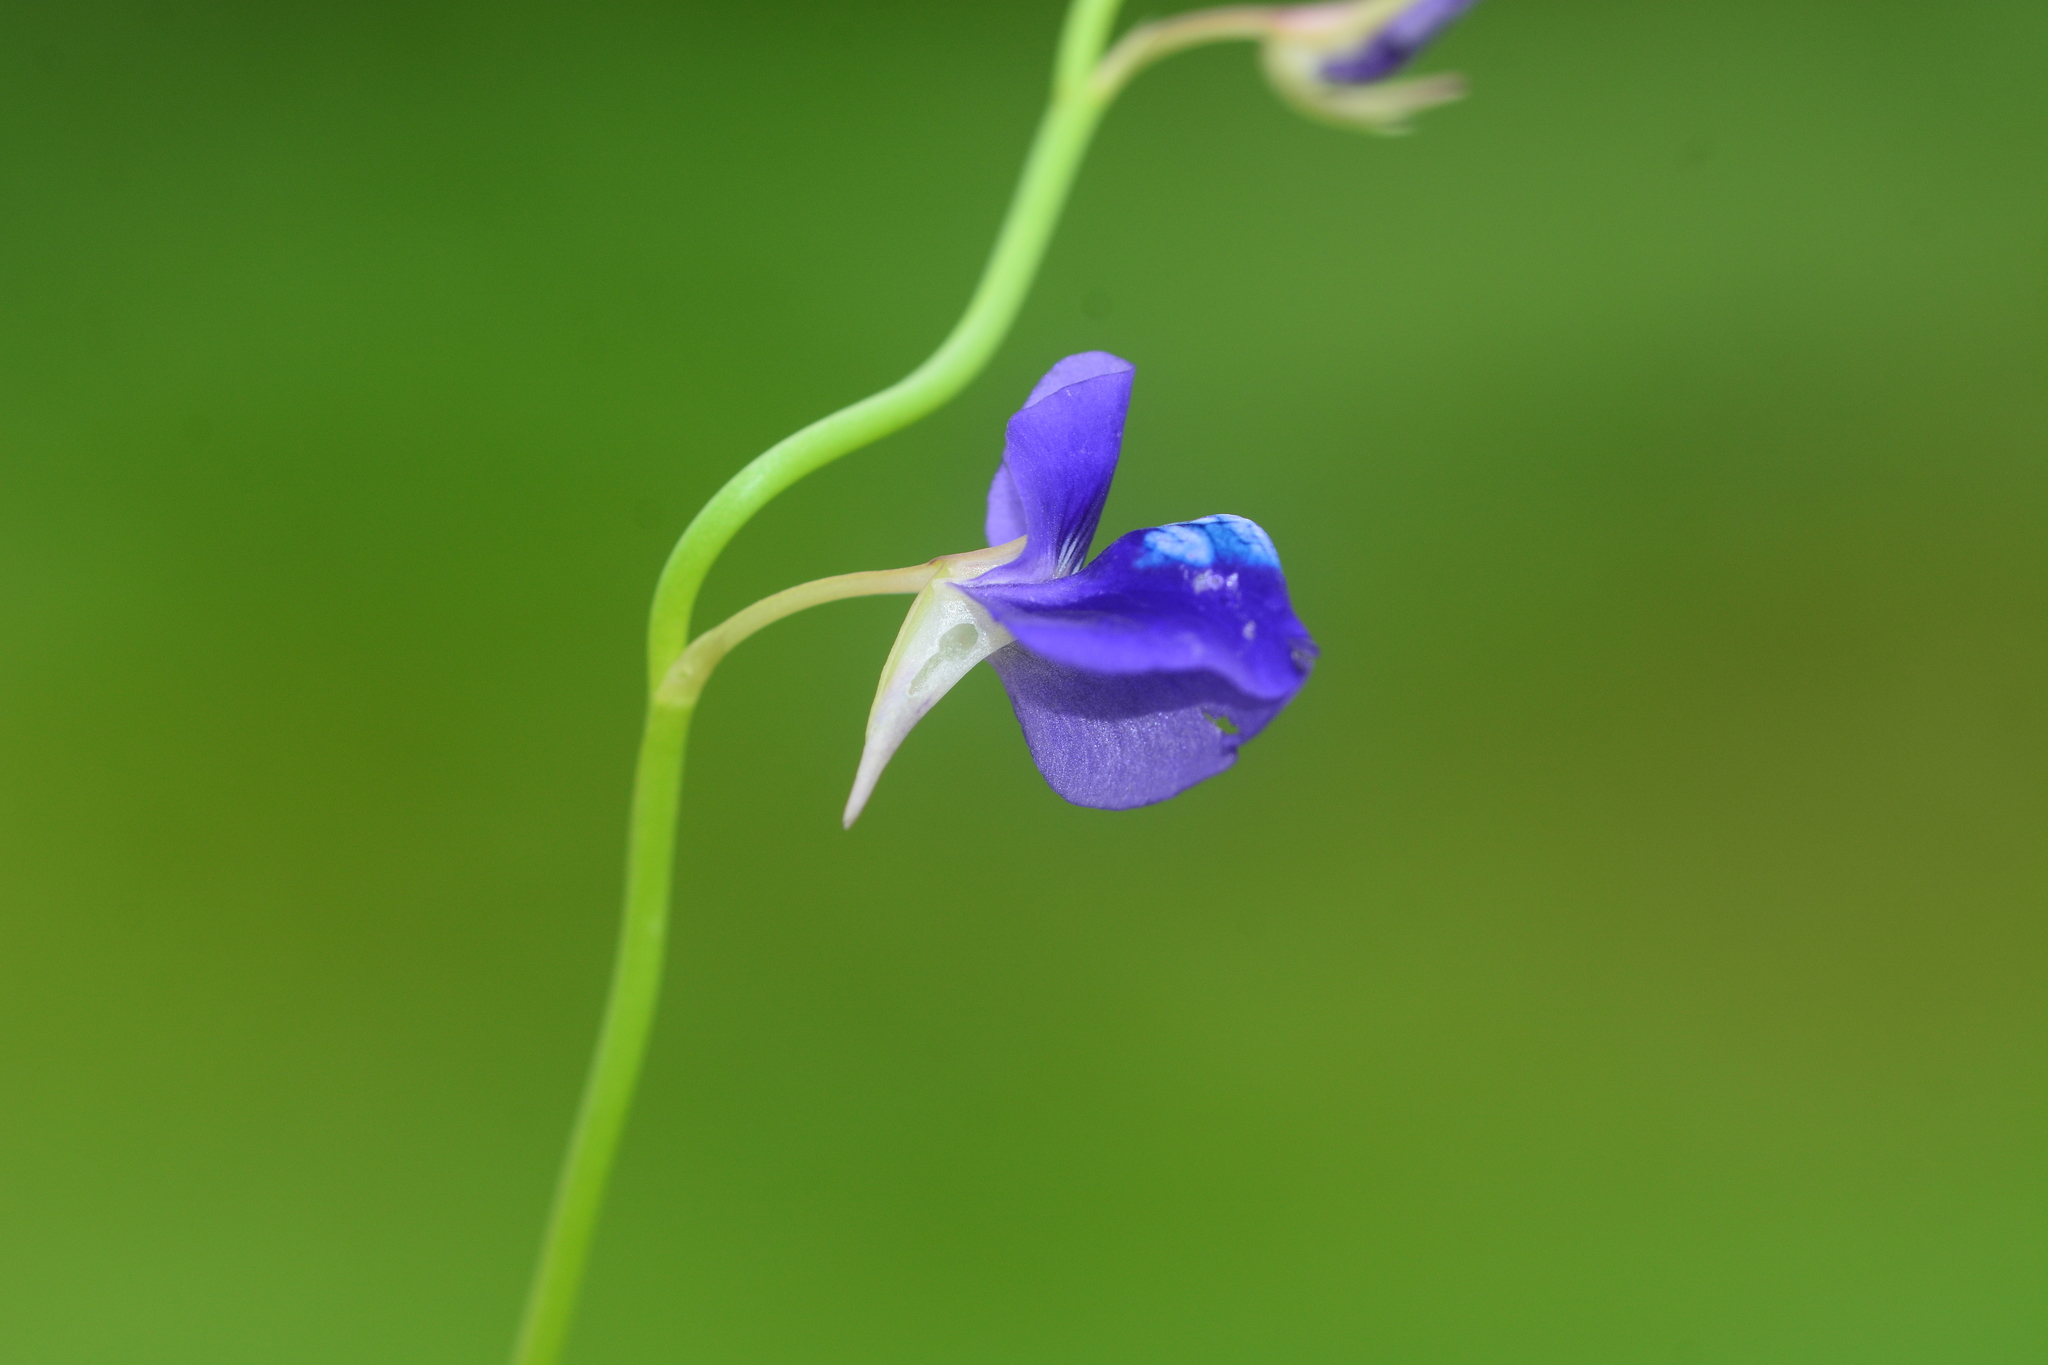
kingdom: Plantae
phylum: Tracheophyta
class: Magnoliopsida
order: Lamiales
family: Lentibulariaceae
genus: Utricularia
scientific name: Utricularia reticulata
